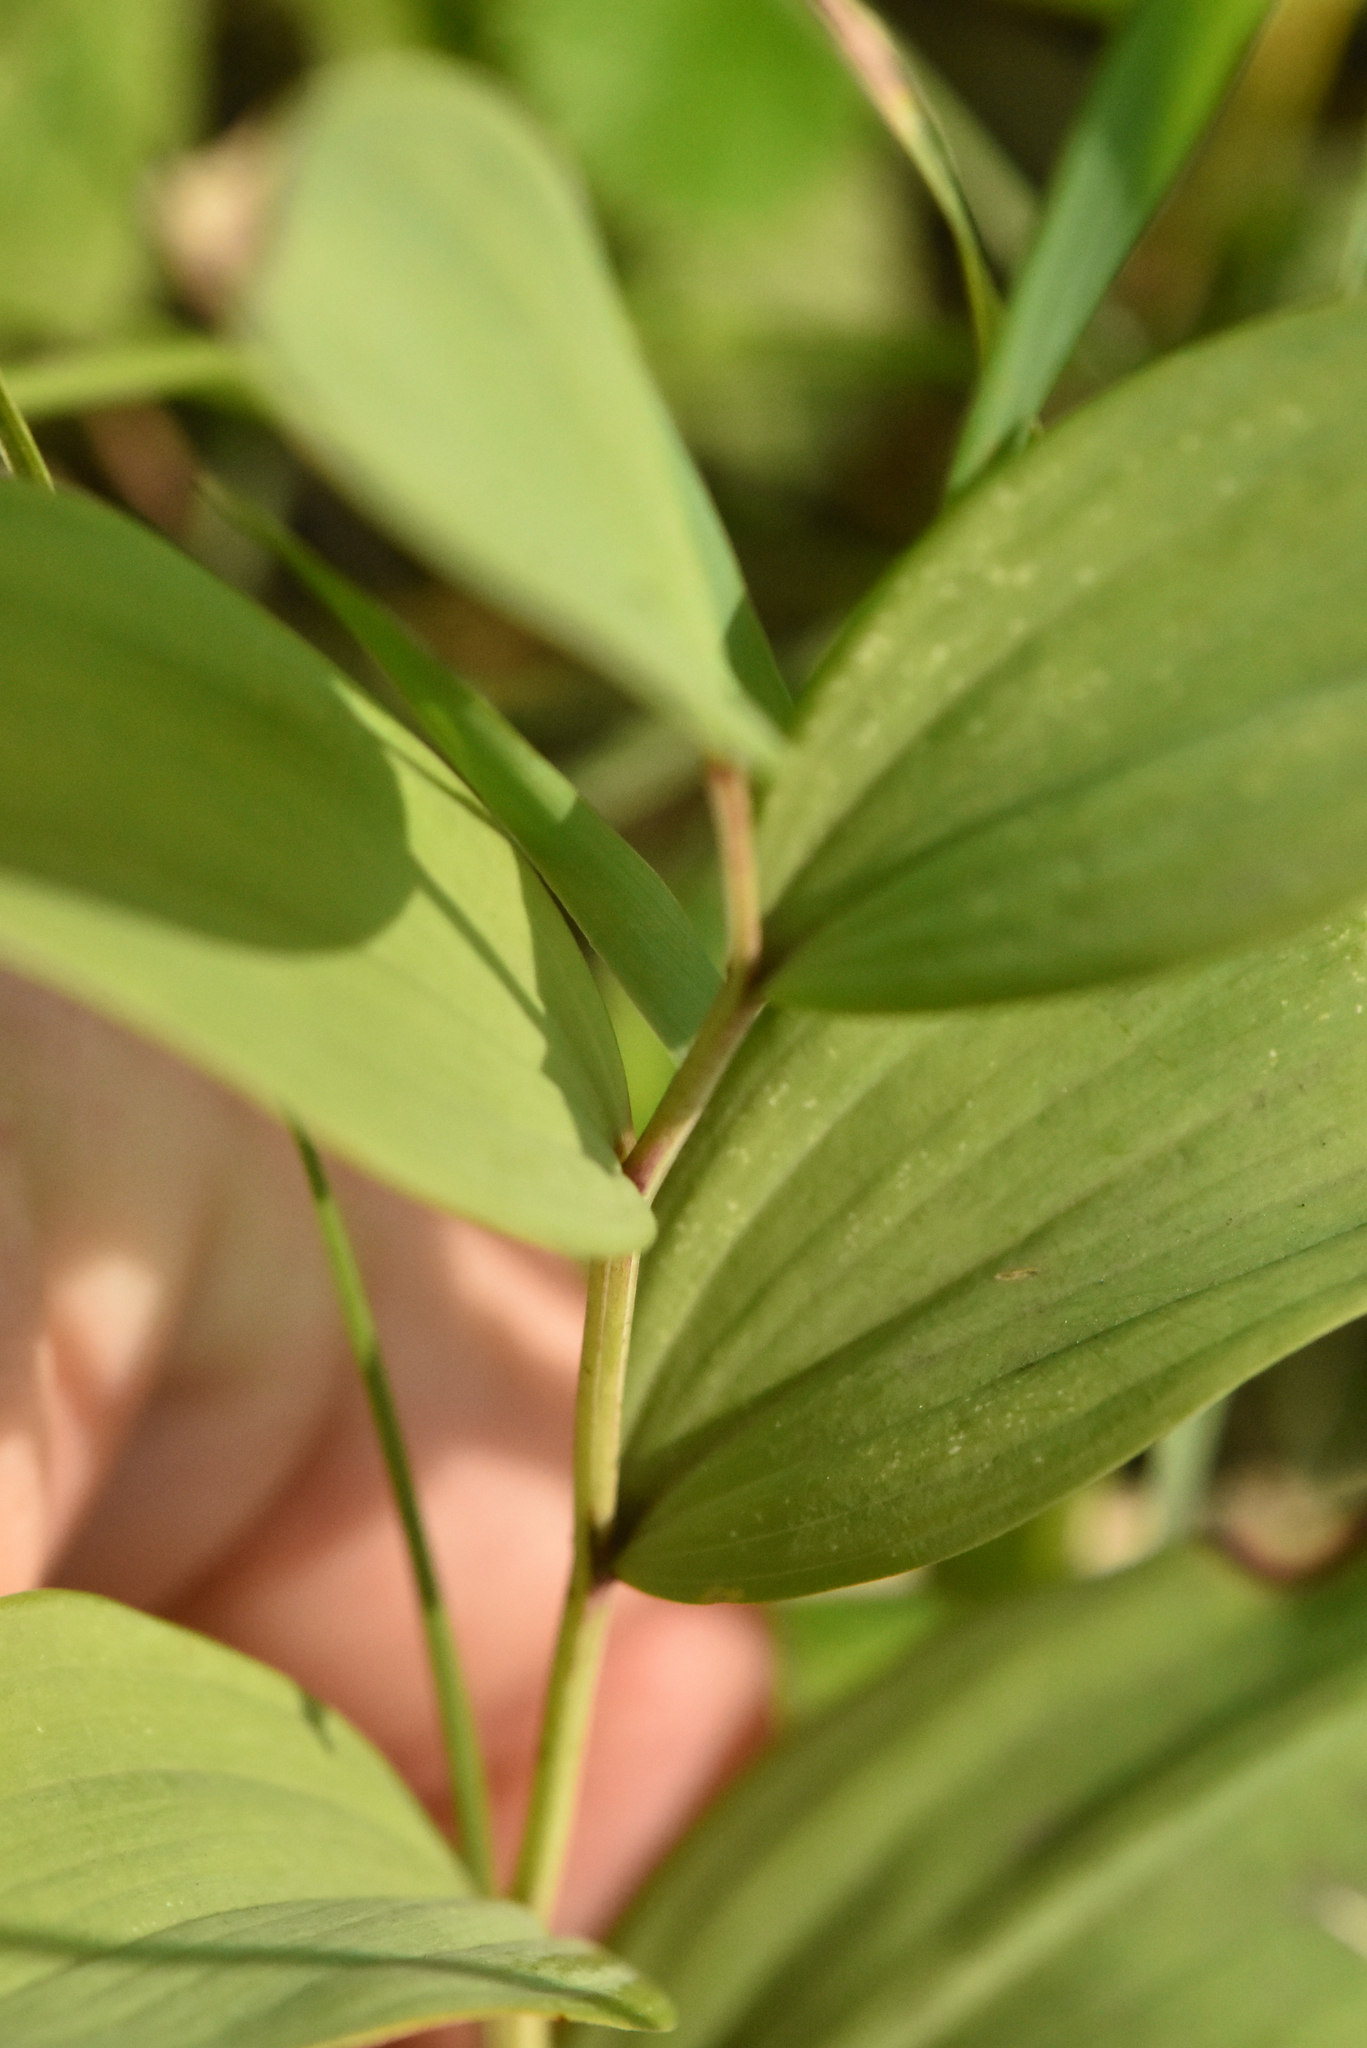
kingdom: Plantae
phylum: Tracheophyta
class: Liliopsida
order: Asparagales
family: Asparagaceae
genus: Polygonatum
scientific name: Polygonatum odoratum
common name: Angular solomon's-seal
